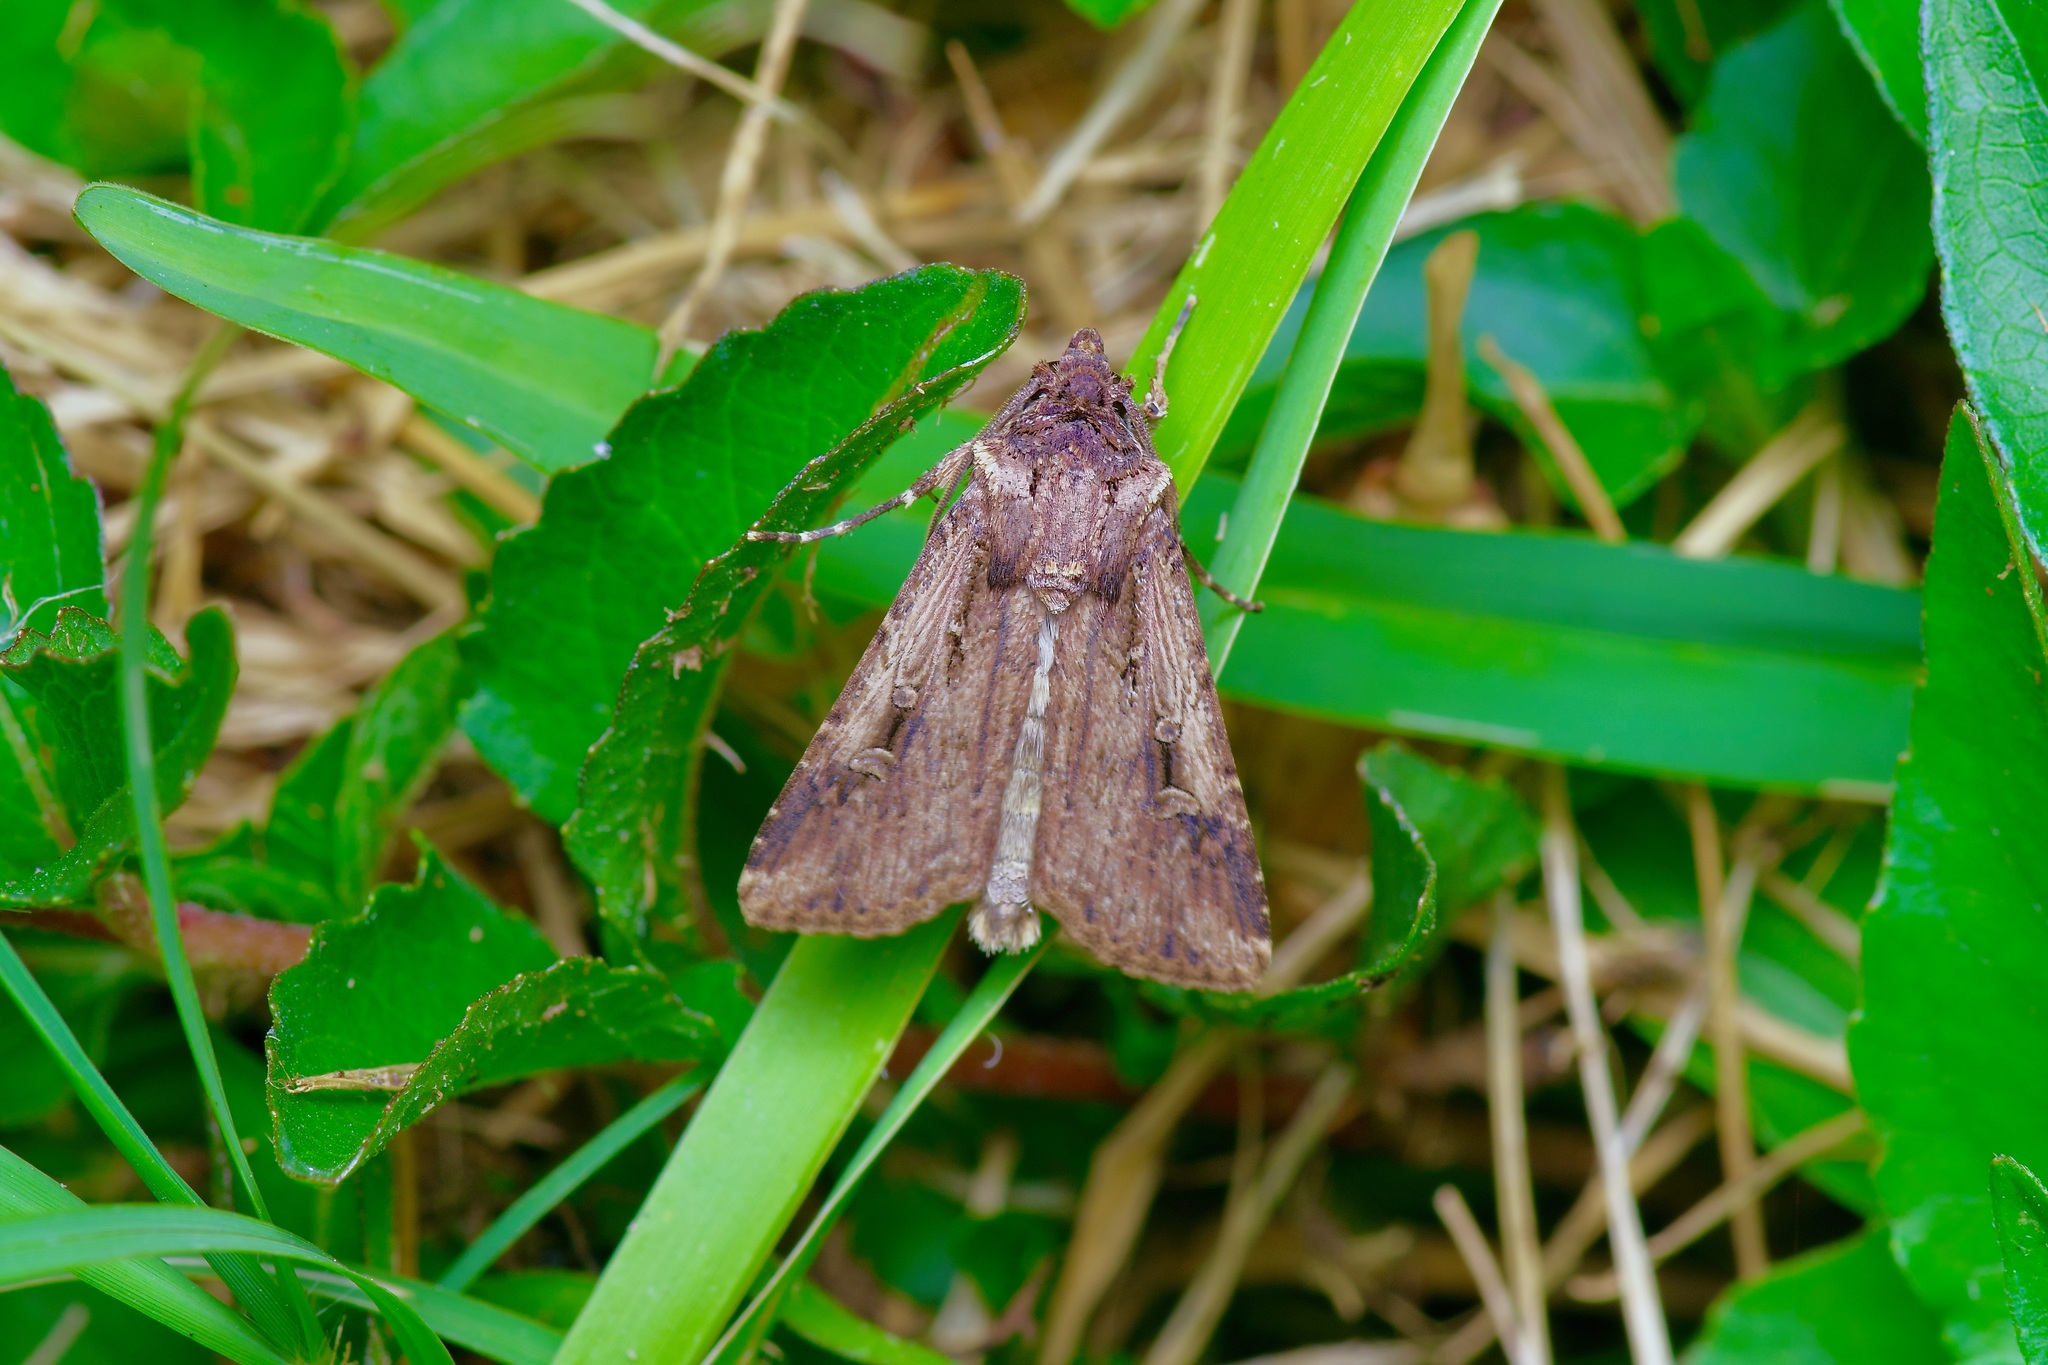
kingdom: Animalia
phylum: Arthropoda
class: Insecta
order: Lepidoptera
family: Noctuidae
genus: Feltia
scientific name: Feltia subterranea
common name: Granulate cutworm
